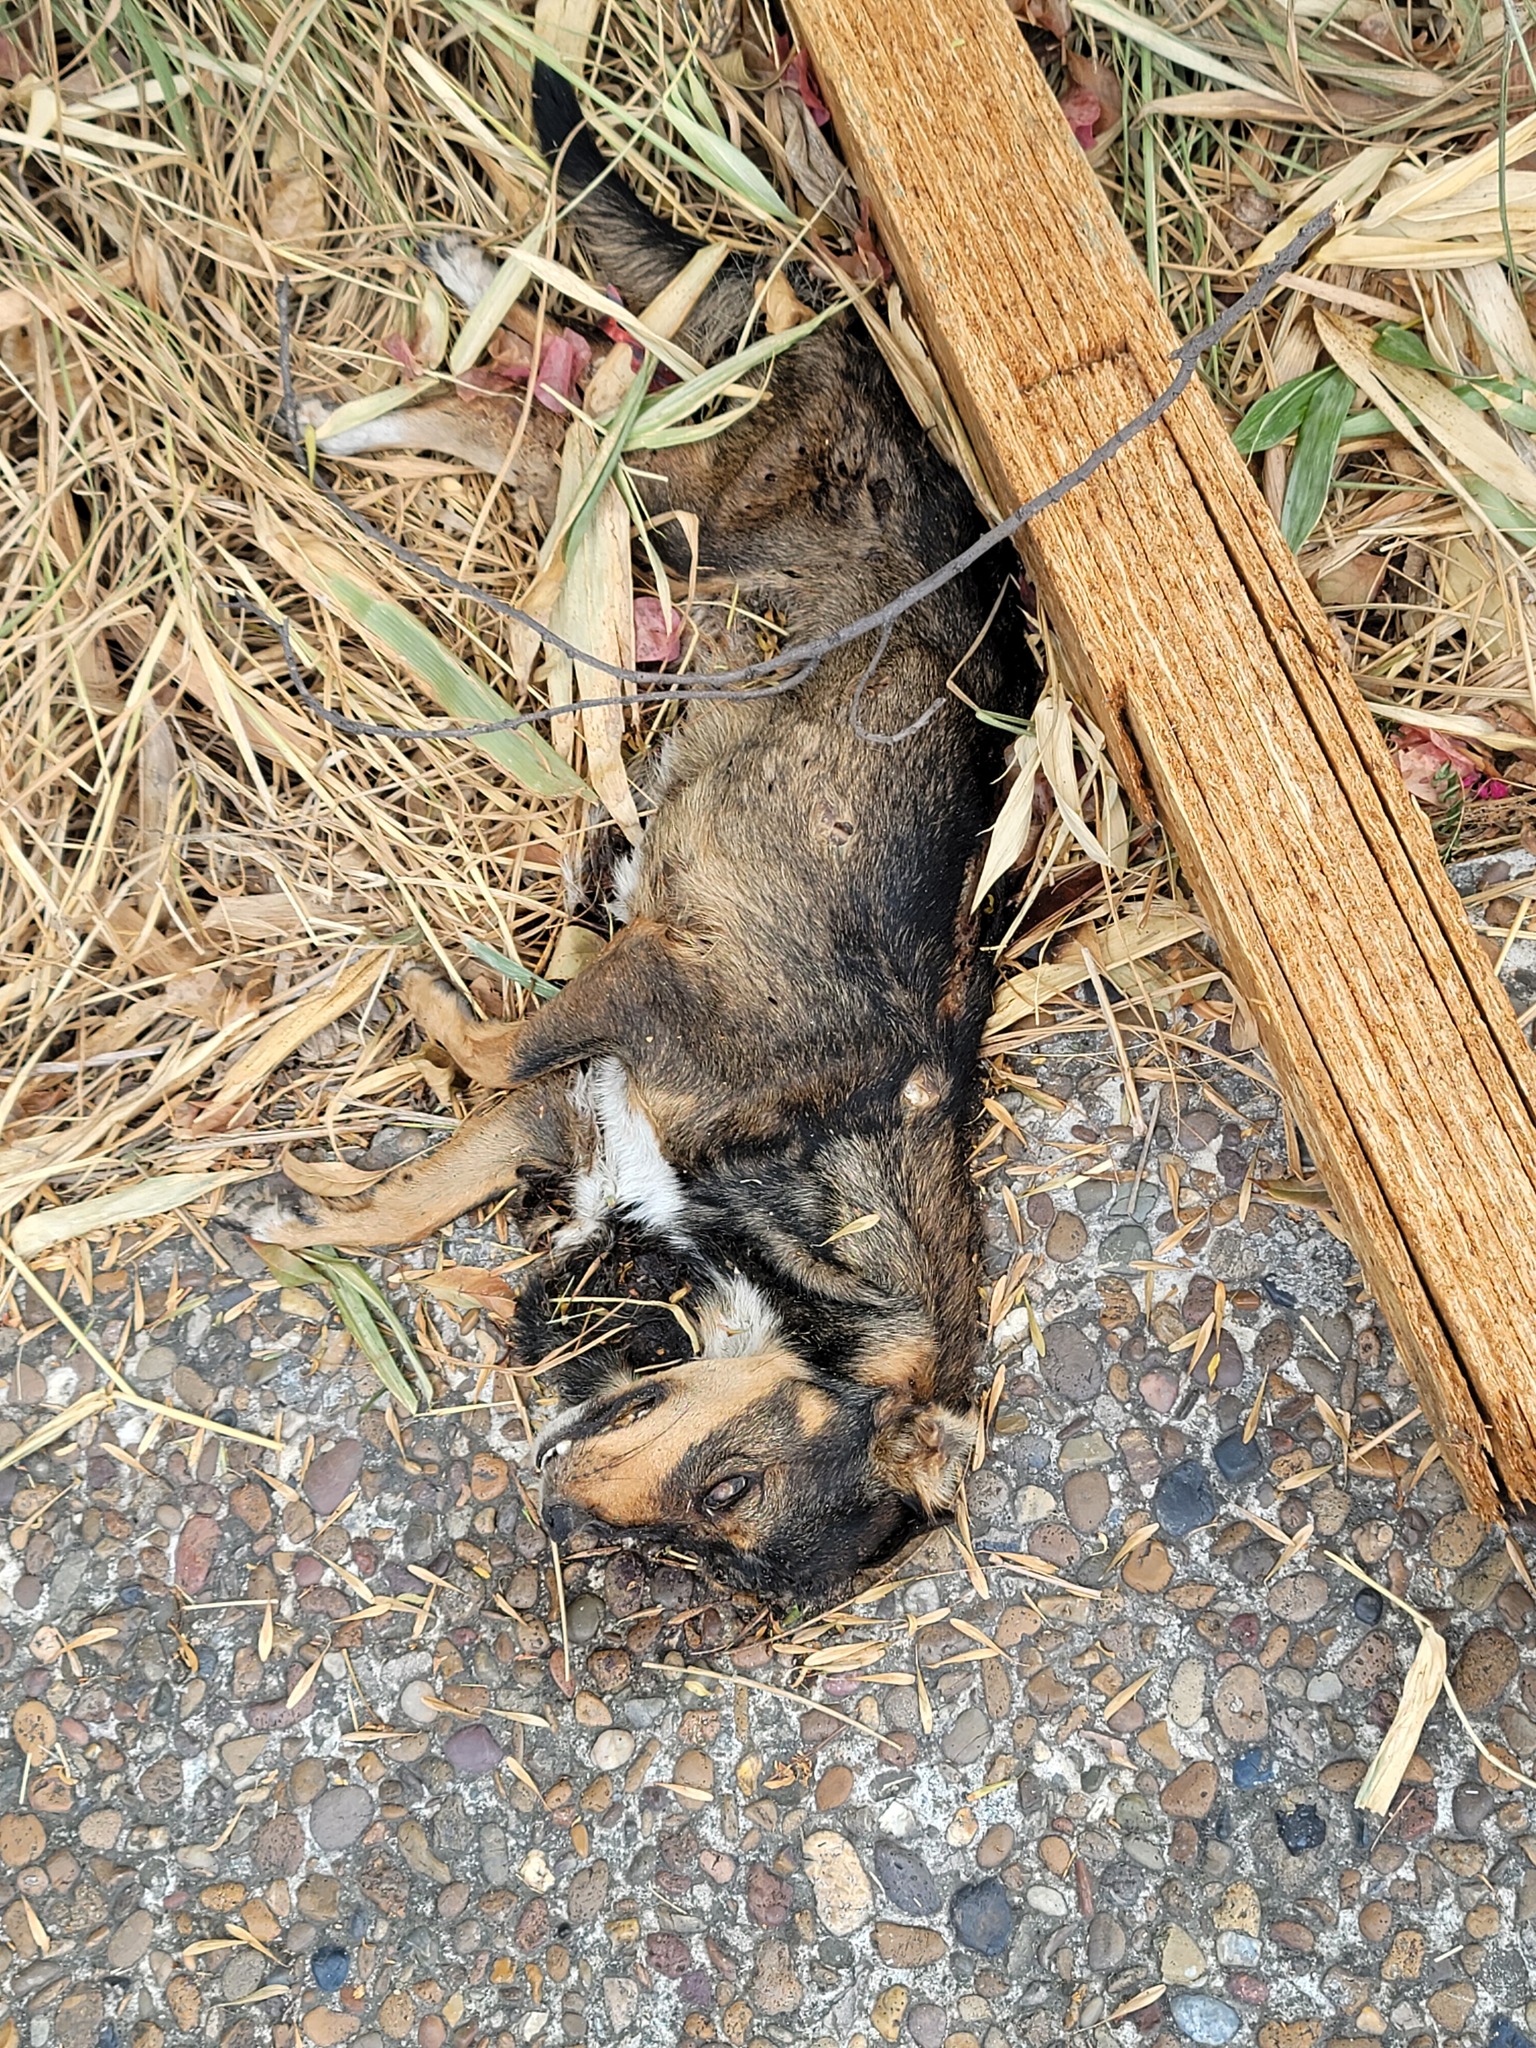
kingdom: Animalia
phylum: Chordata
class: Mammalia
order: Carnivora
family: Canidae
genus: Canis
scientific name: Canis lupus
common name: Gray wolf
